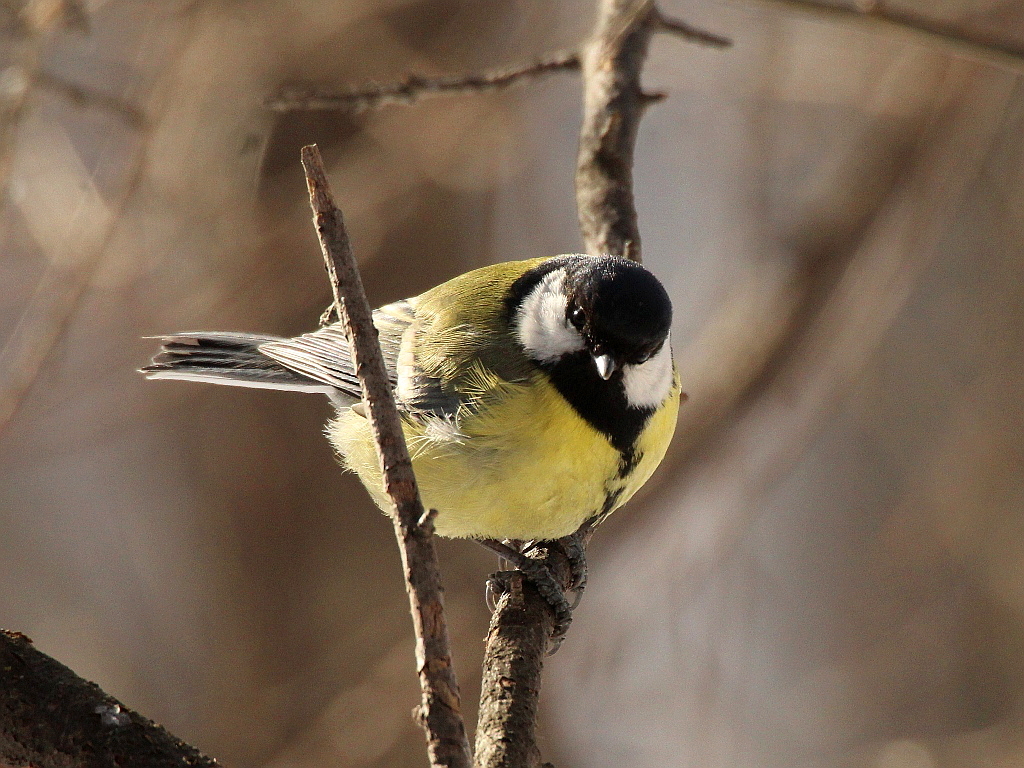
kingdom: Animalia
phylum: Chordata
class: Aves
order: Passeriformes
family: Paridae
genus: Parus
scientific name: Parus major
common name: Great tit
